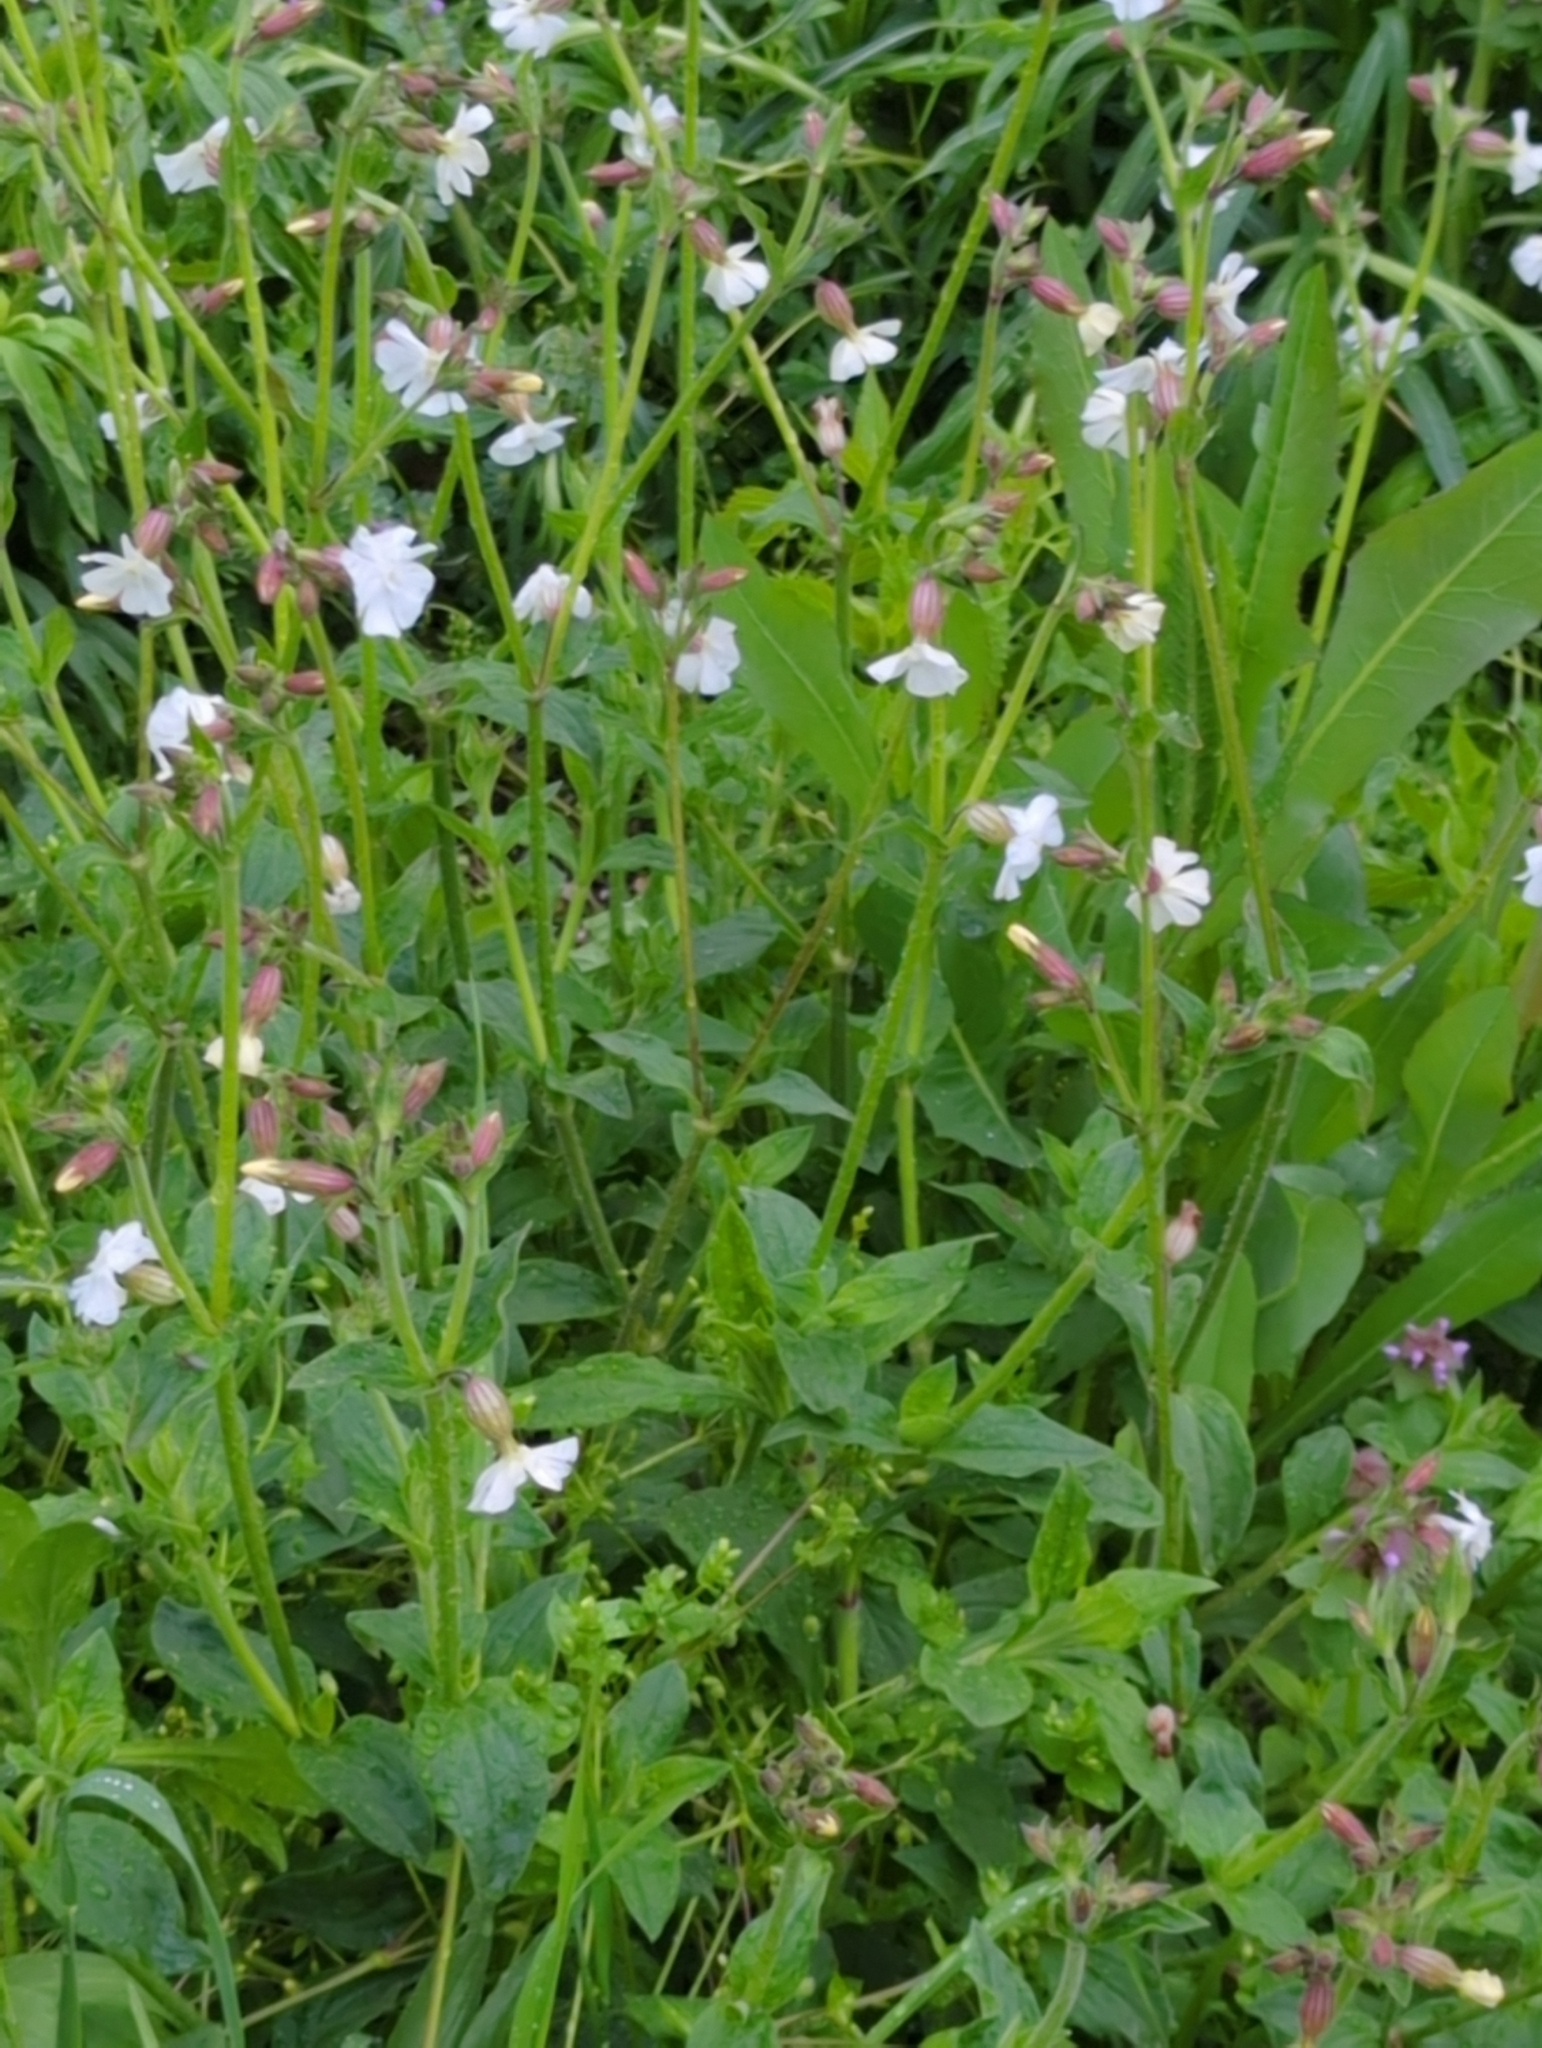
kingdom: Plantae
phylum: Tracheophyta
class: Magnoliopsida
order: Caryophyllales
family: Caryophyllaceae
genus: Silene
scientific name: Silene latifolia
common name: White campion
